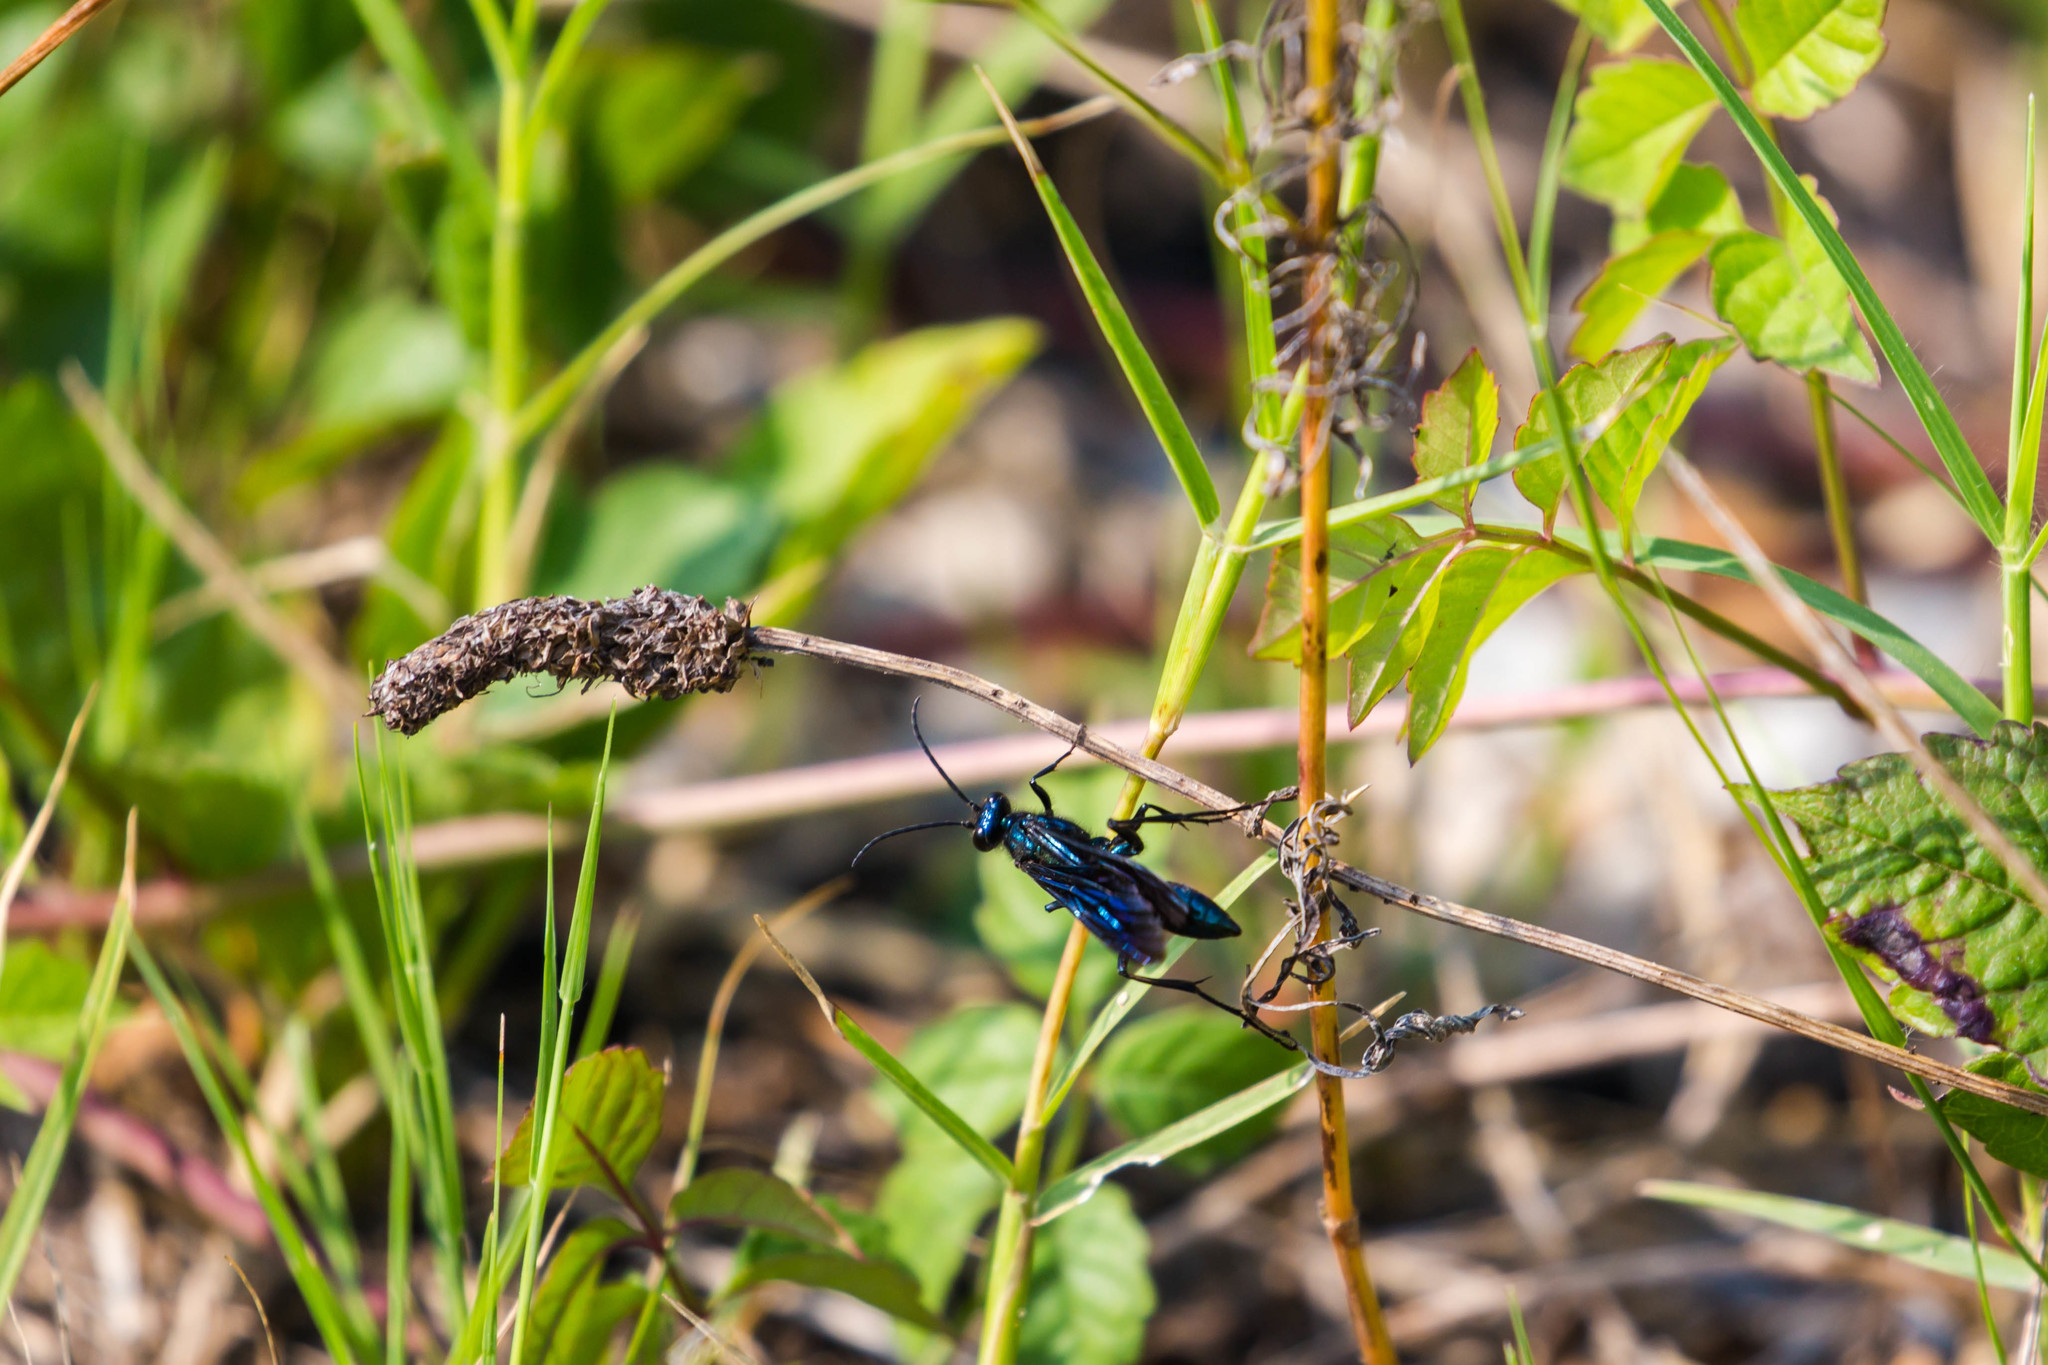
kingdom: Animalia
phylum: Arthropoda
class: Insecta
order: Hymenoptera
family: Sphecidae
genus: Chalybion
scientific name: Chalybion californicum
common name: Mud dauber
